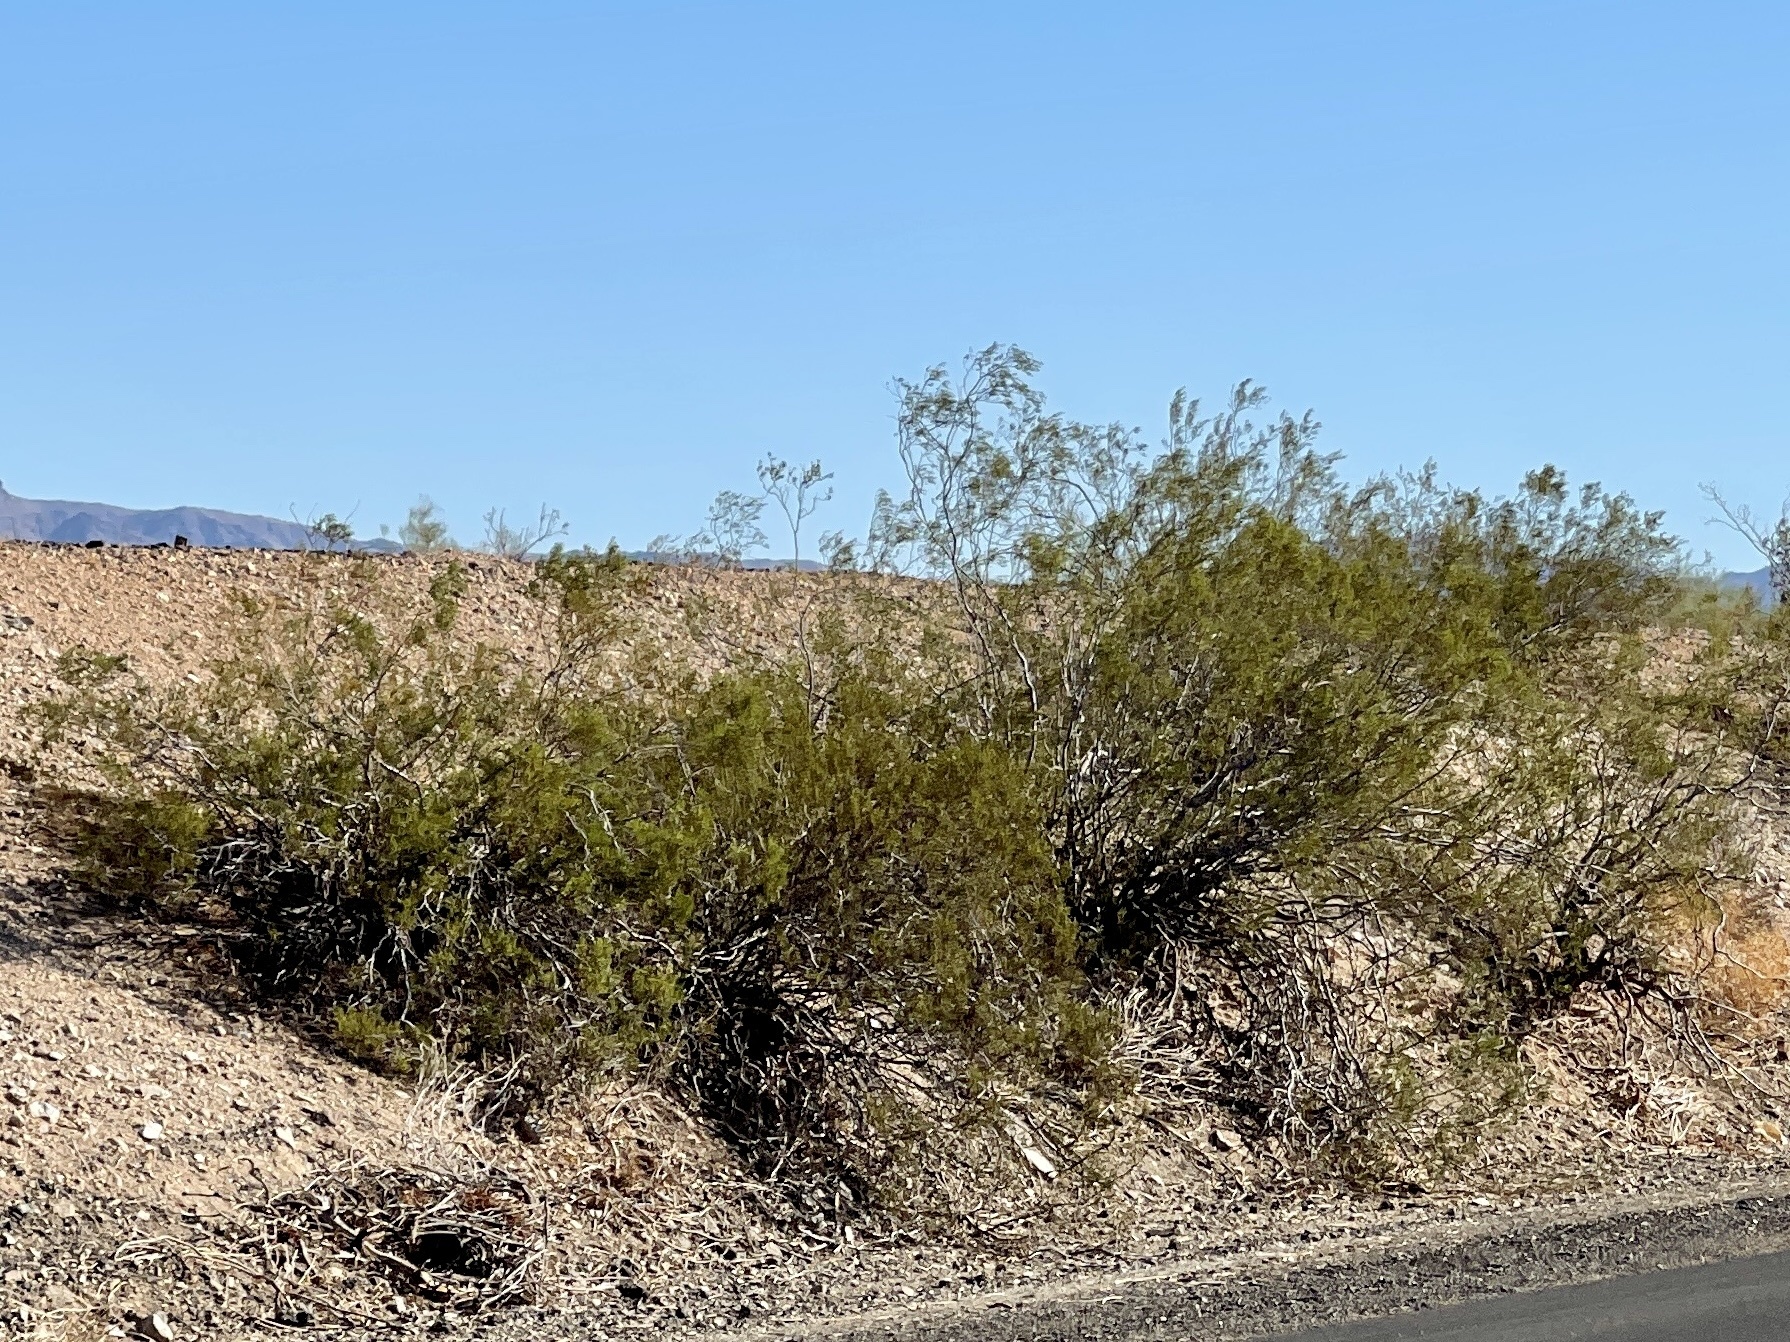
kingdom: Plantae
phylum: Tracheophyta
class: Magnoliopsida
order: Zygophyllales
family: Zygophyllaceae
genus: Larrea
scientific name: Larrea tridentata
